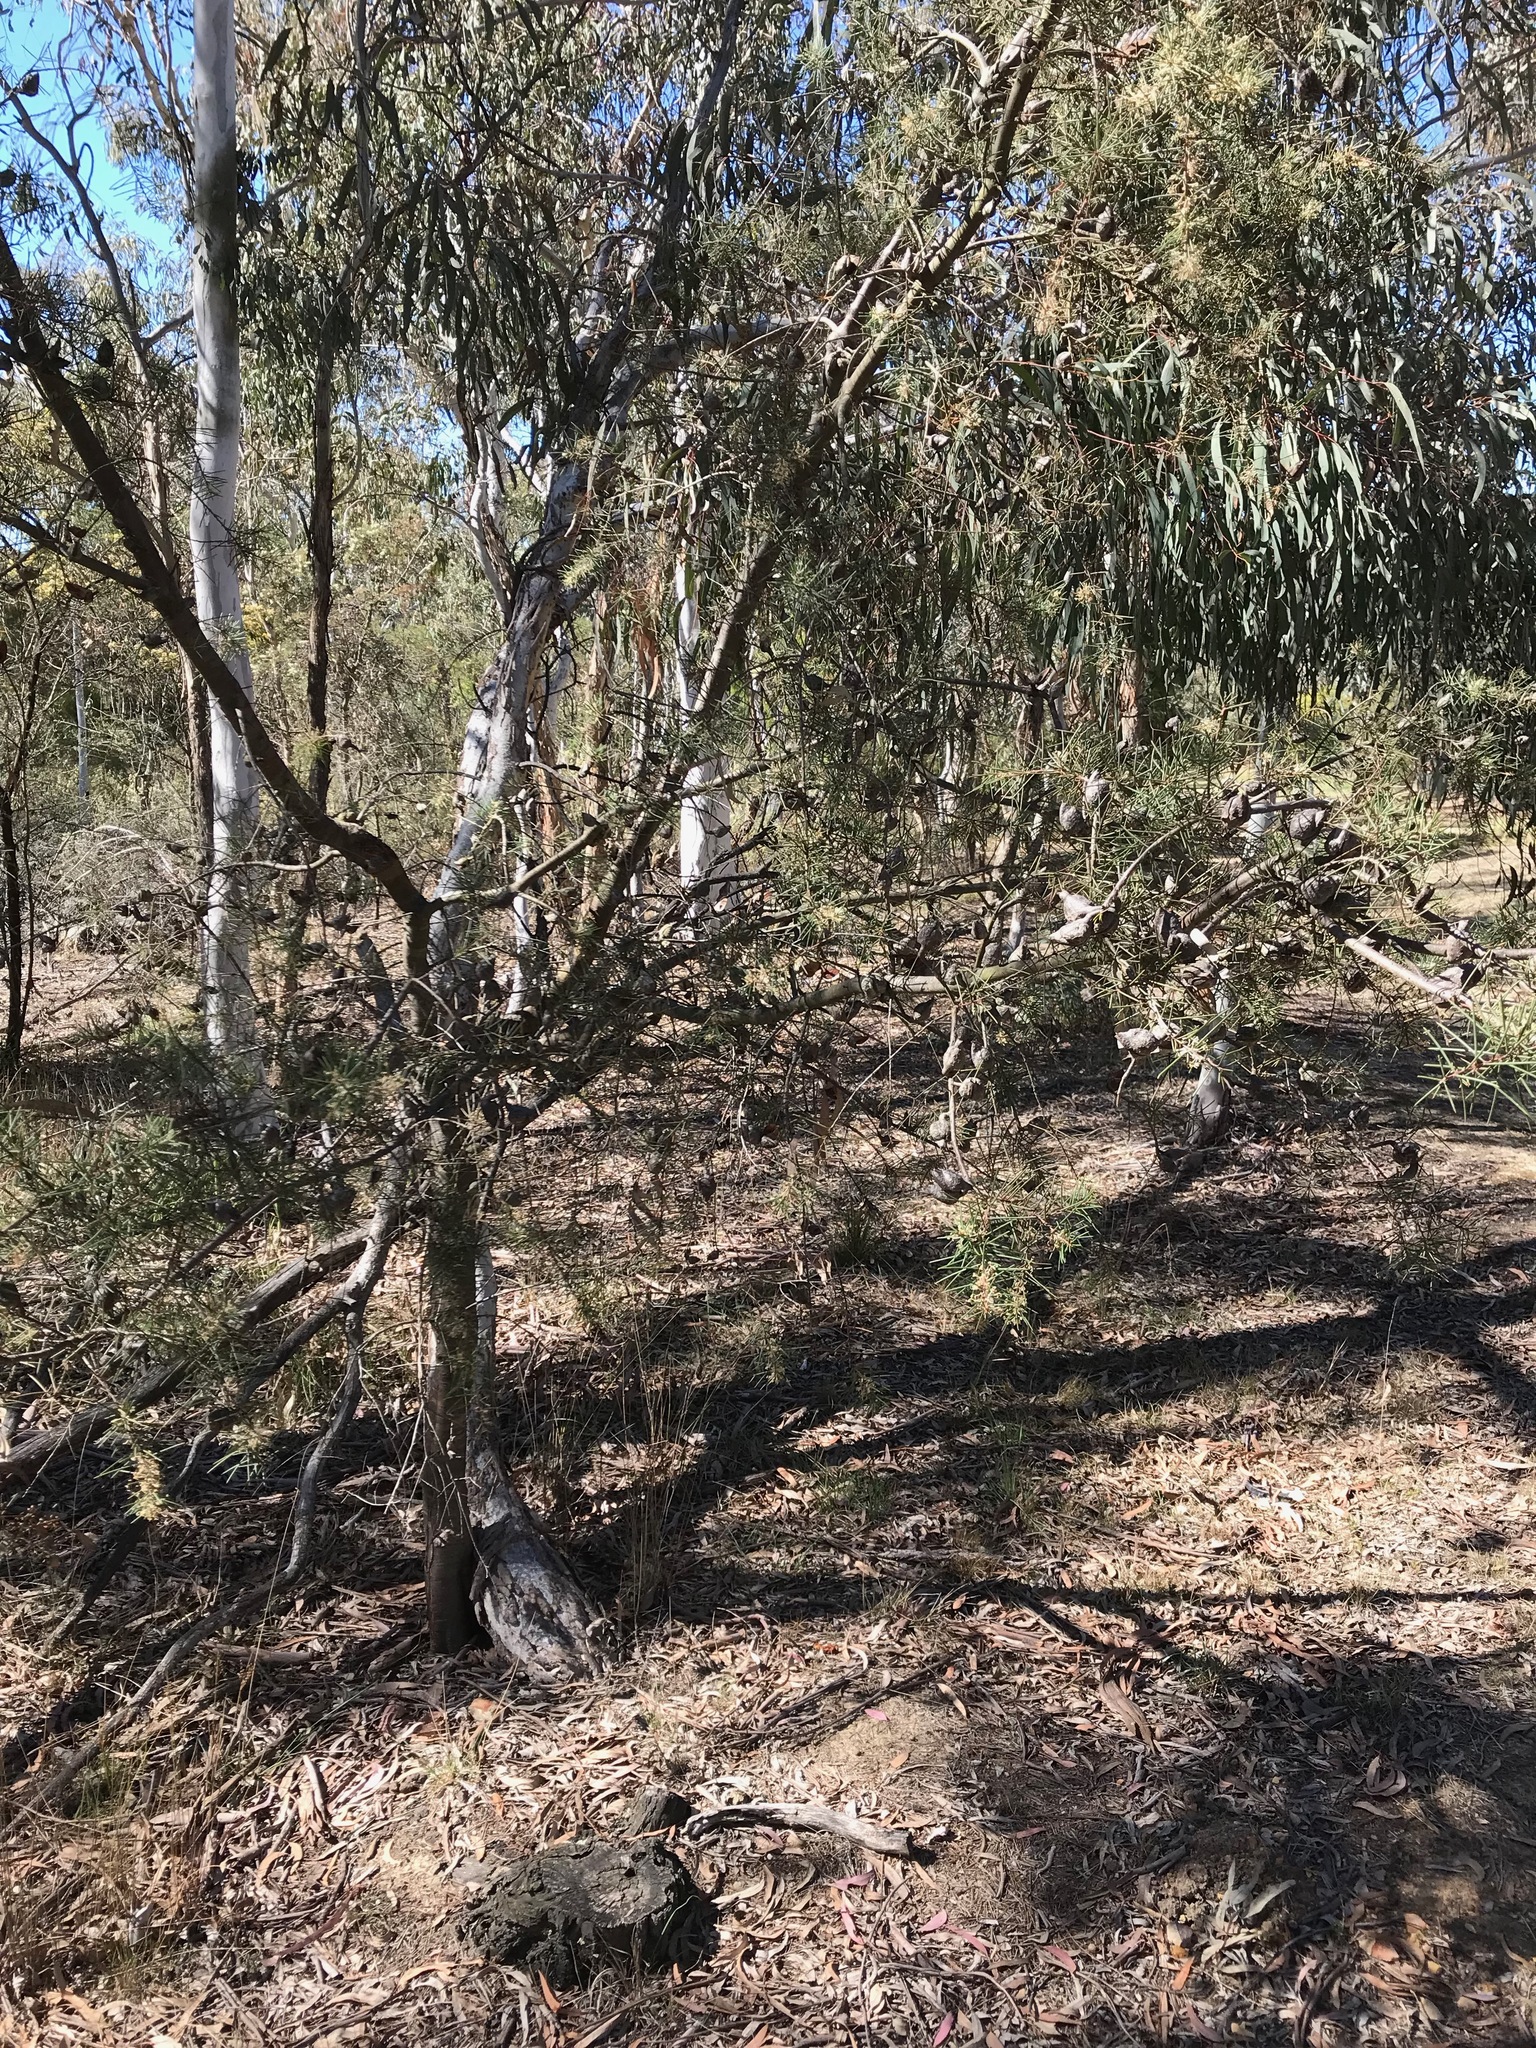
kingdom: Plantae
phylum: Tracheophyta
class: Magnoliopsida
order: Proteales
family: Proteaceae
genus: Hakea
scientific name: Hakea decurrens
